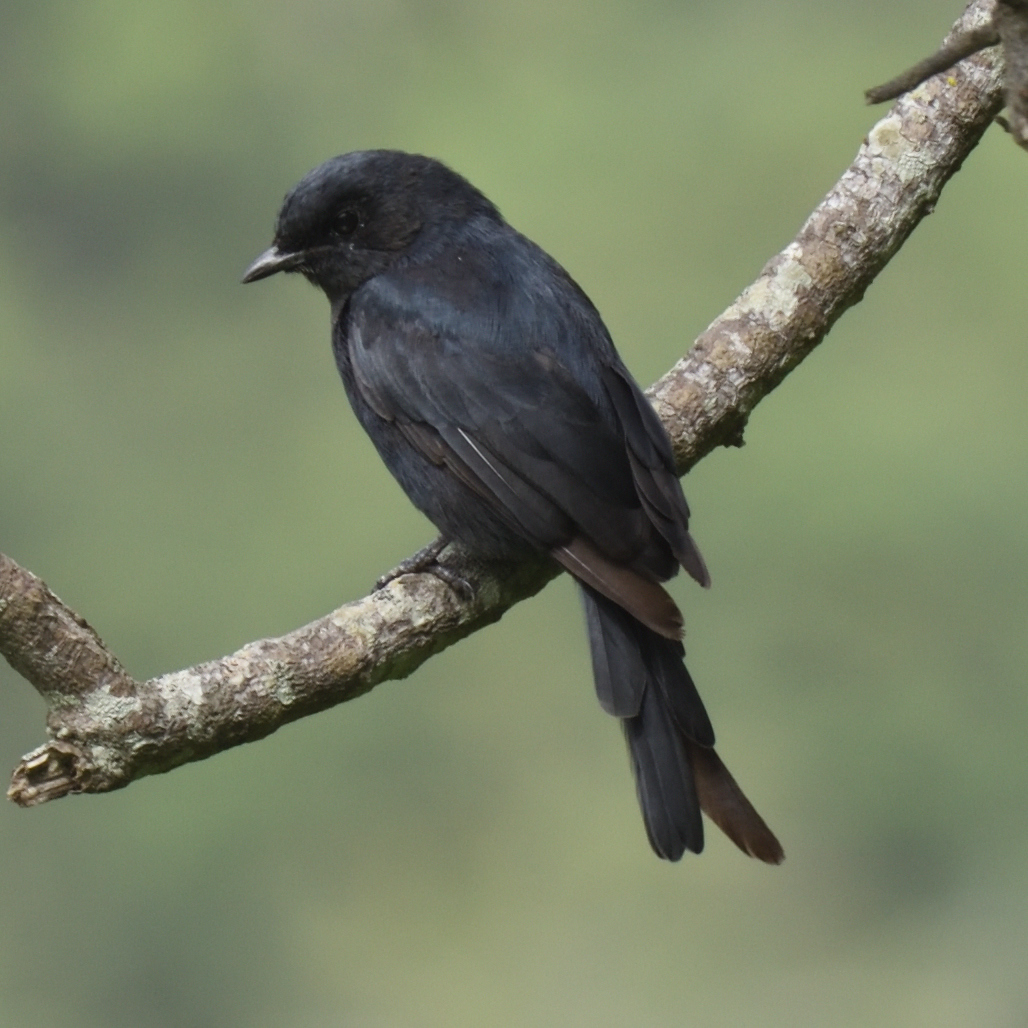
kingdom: Animalia
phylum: Chordata
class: Aves
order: Passeriformes
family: Muscicapidae
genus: Melaenornis
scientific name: Melaenornis pammelaina
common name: Southern black flycatcher
